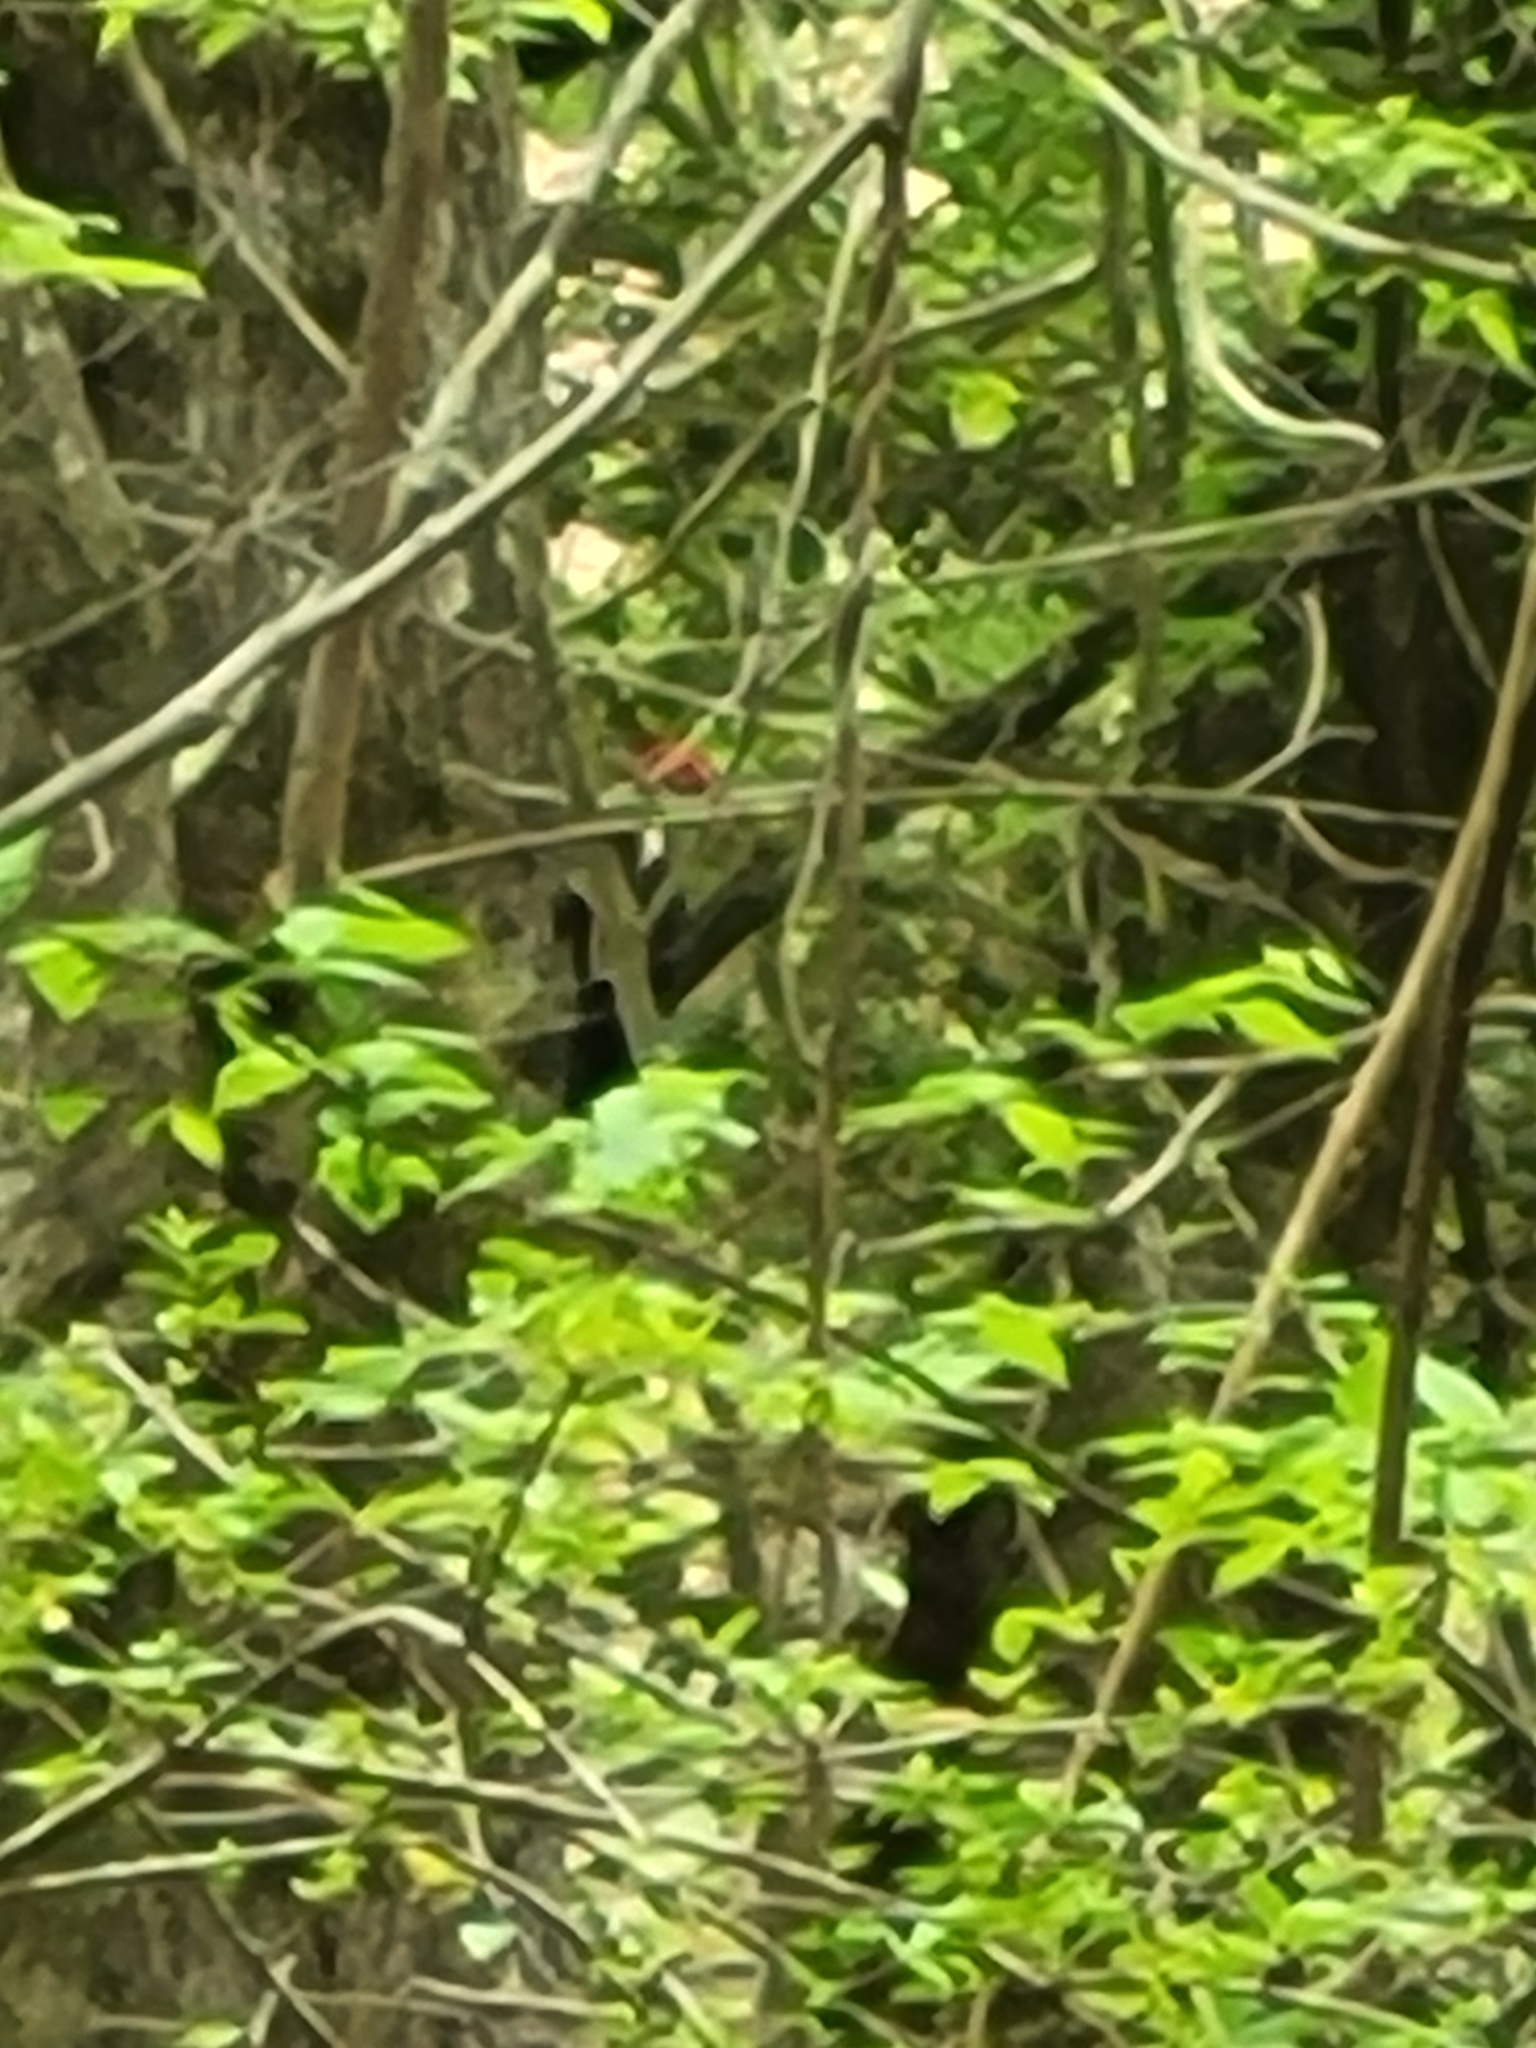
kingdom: Animalia
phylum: Chordata
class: Aves
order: Piciformes
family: Picidae
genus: Dryocopus
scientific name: Dryocopus pileatus
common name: Pileated woodpecker
